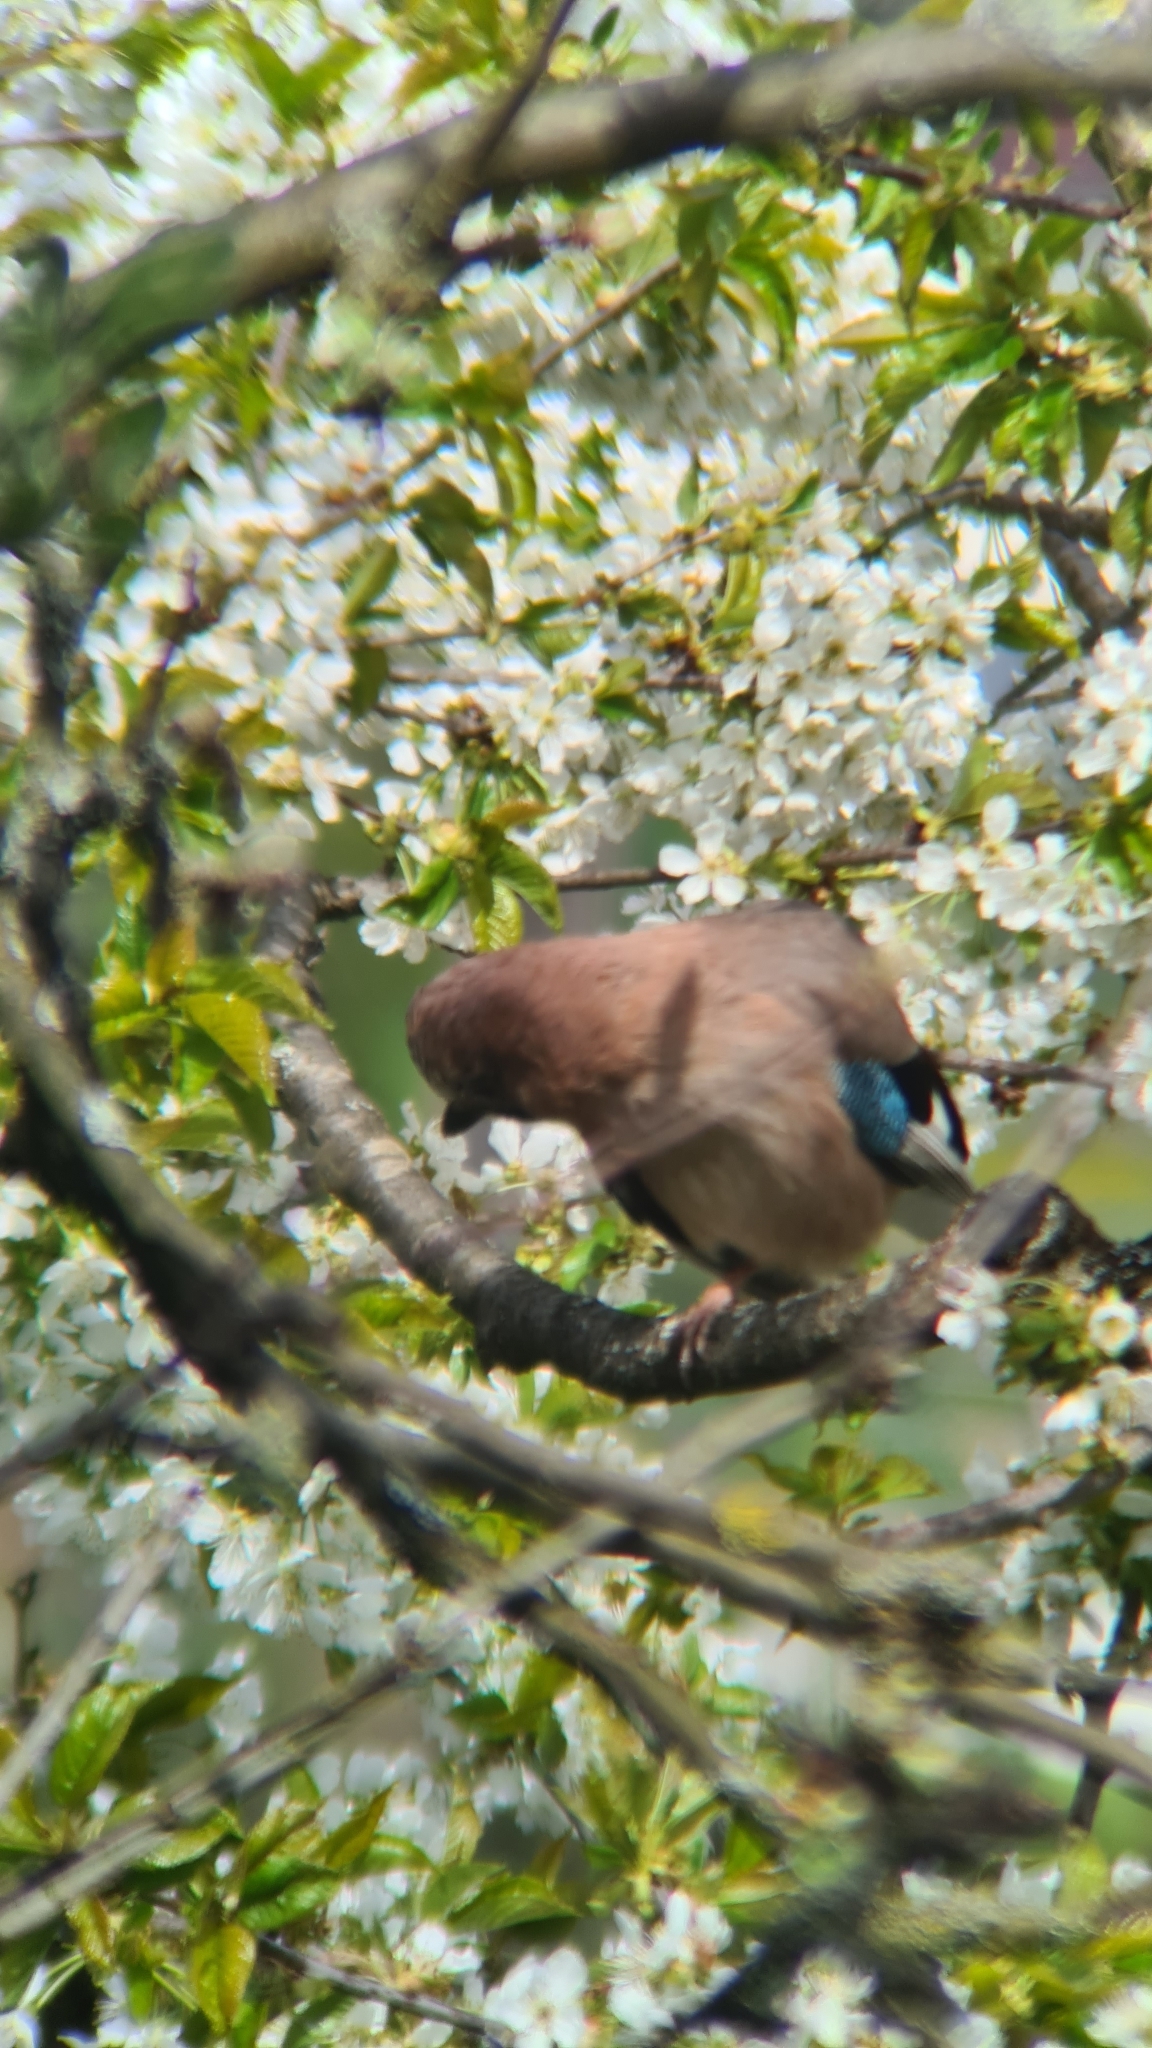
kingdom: Animalia
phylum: Chordata
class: Aves
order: Passeriformes
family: Corvidae
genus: Garrulus
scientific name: Garrulus glandarius
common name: Eurasian jay
